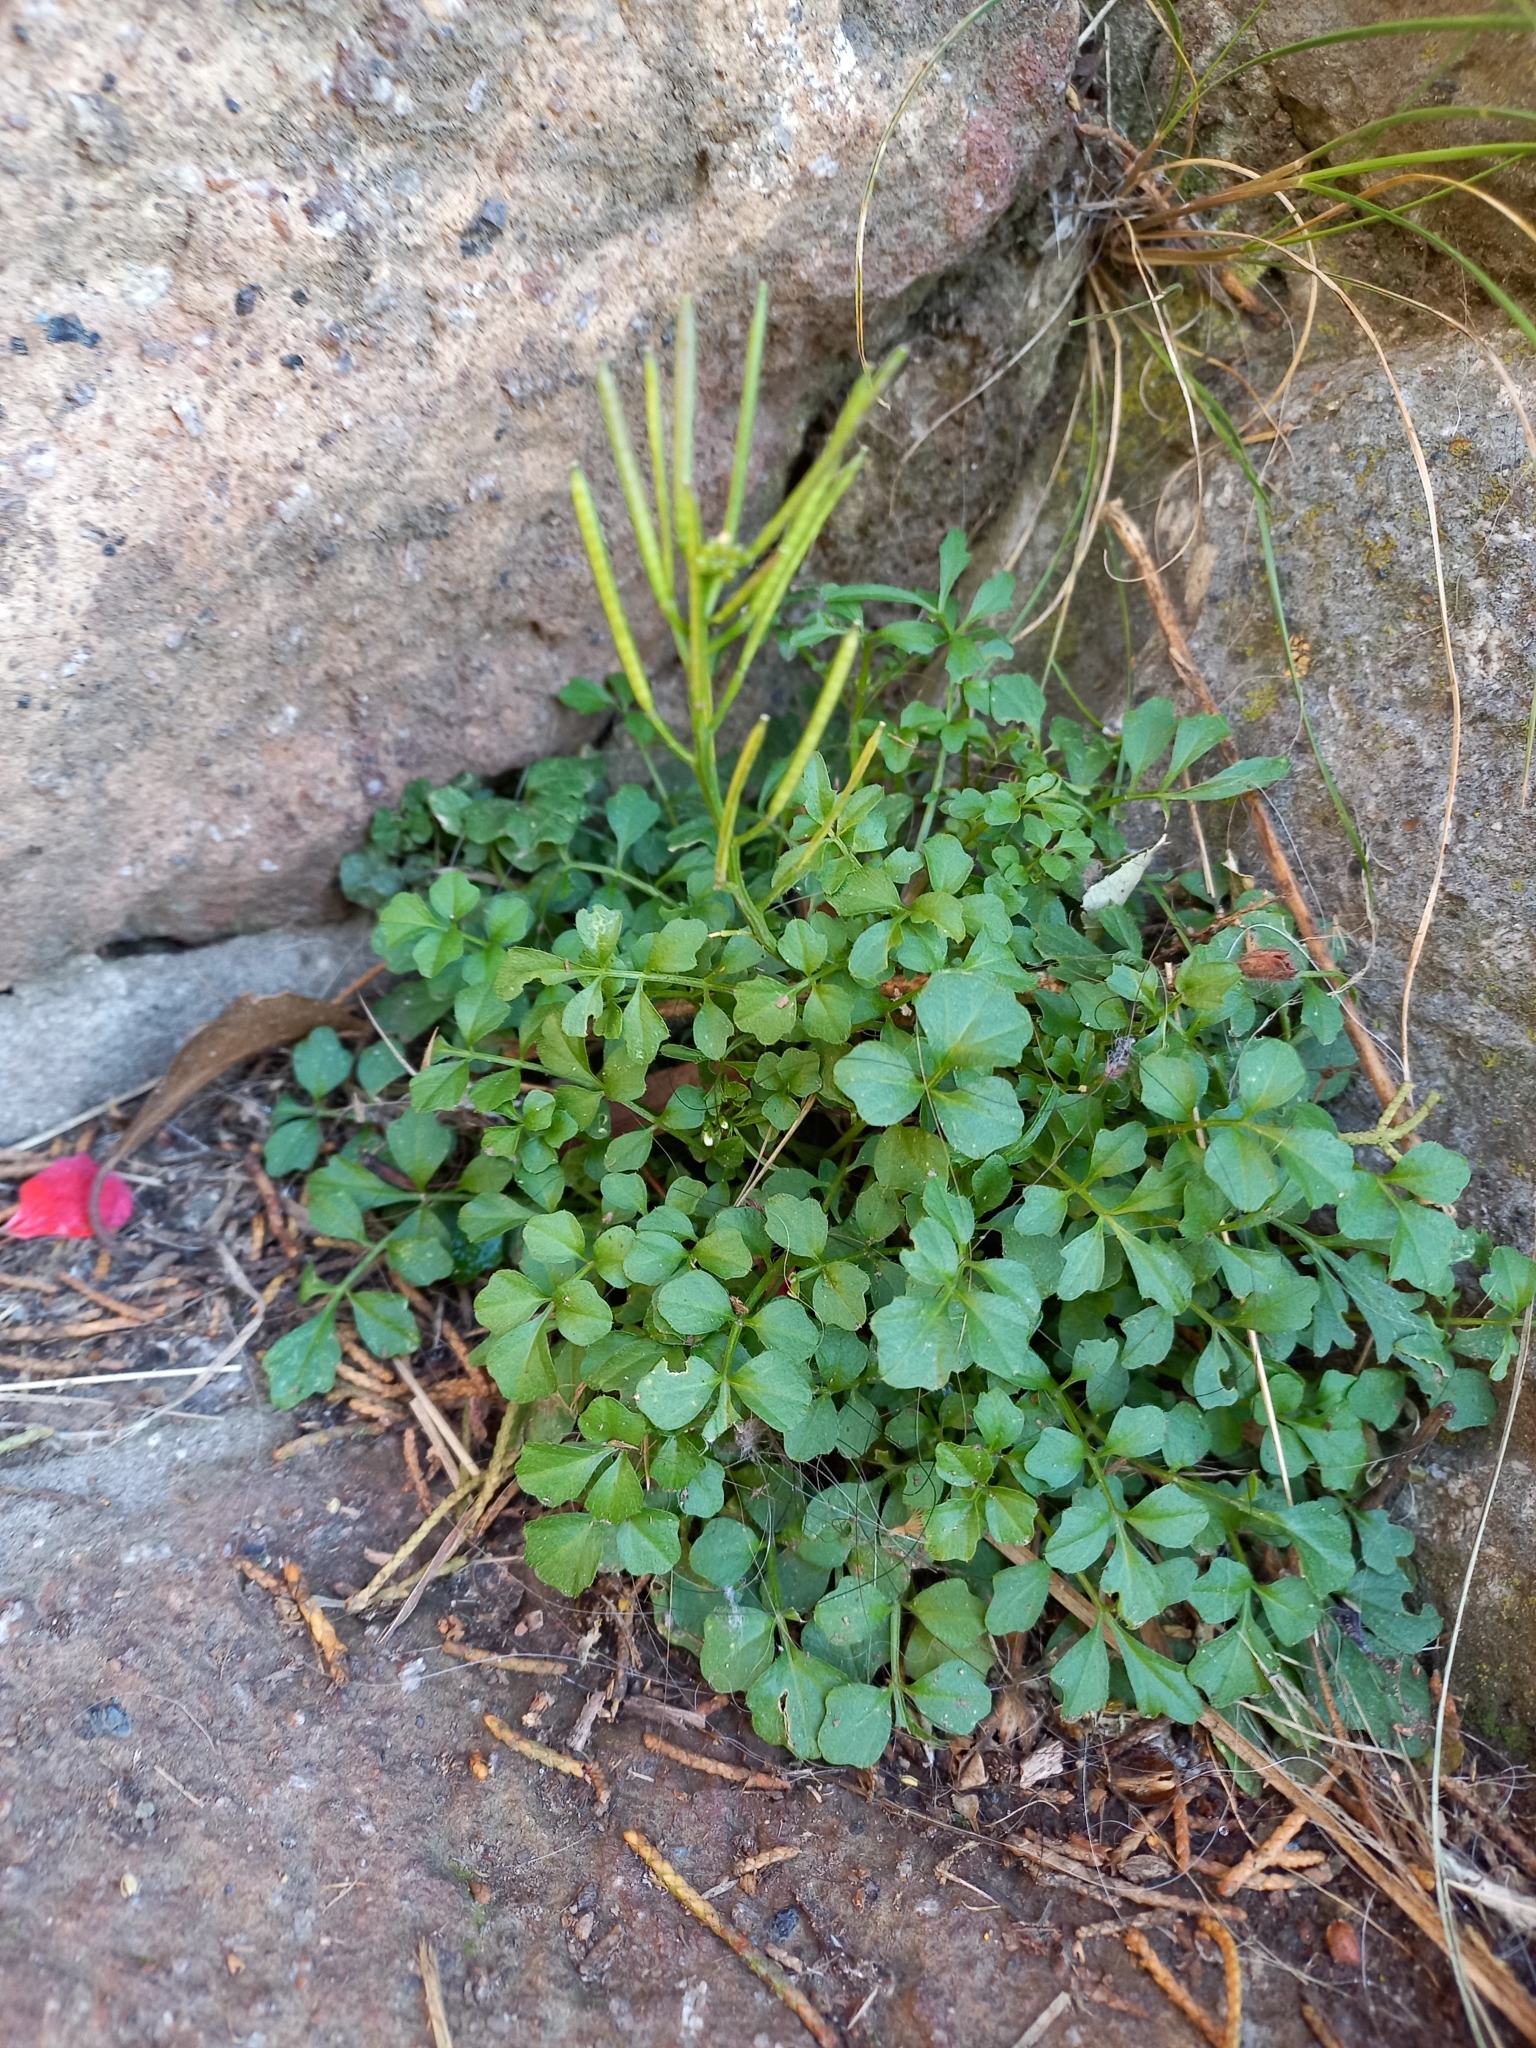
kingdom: Plantae
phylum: Tracheophyta
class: Magnoliopsida
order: Brassicales
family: Brassicaceae
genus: Cardamine
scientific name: Cardamine hirsuta
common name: Hairy bittercress
